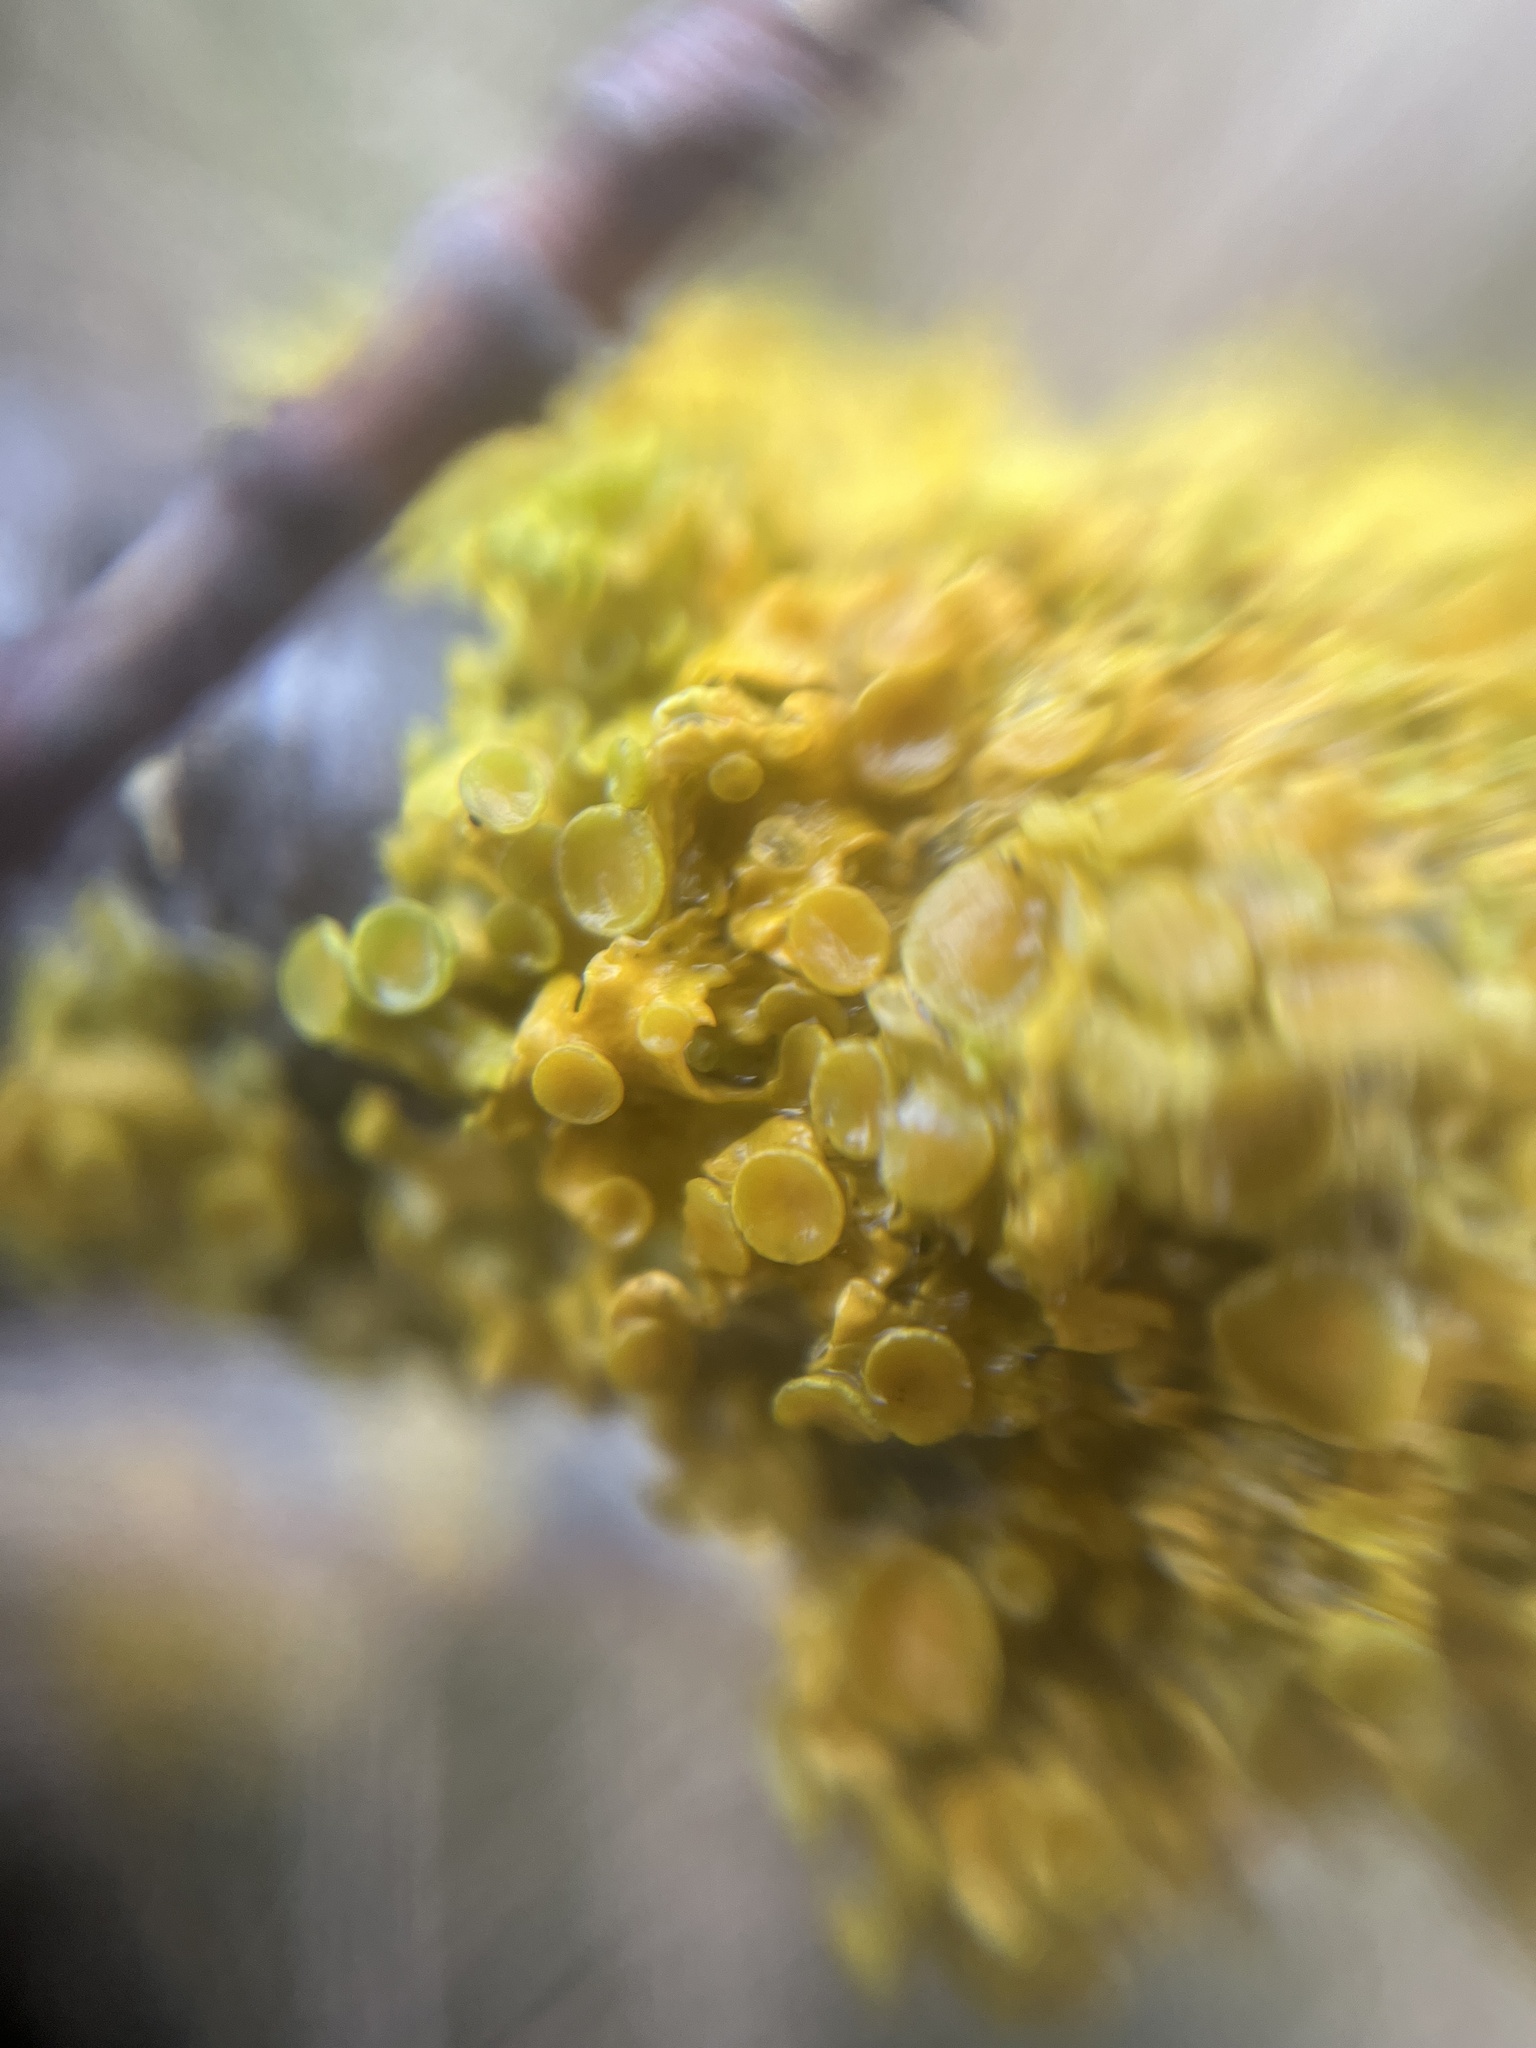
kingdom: Fungi
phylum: Ascomycota
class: Lecanoromycetes
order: Teloschistales
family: Teloschistaceae
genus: Xanthoria
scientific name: Xanthoria parietina
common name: Common orange lichen
